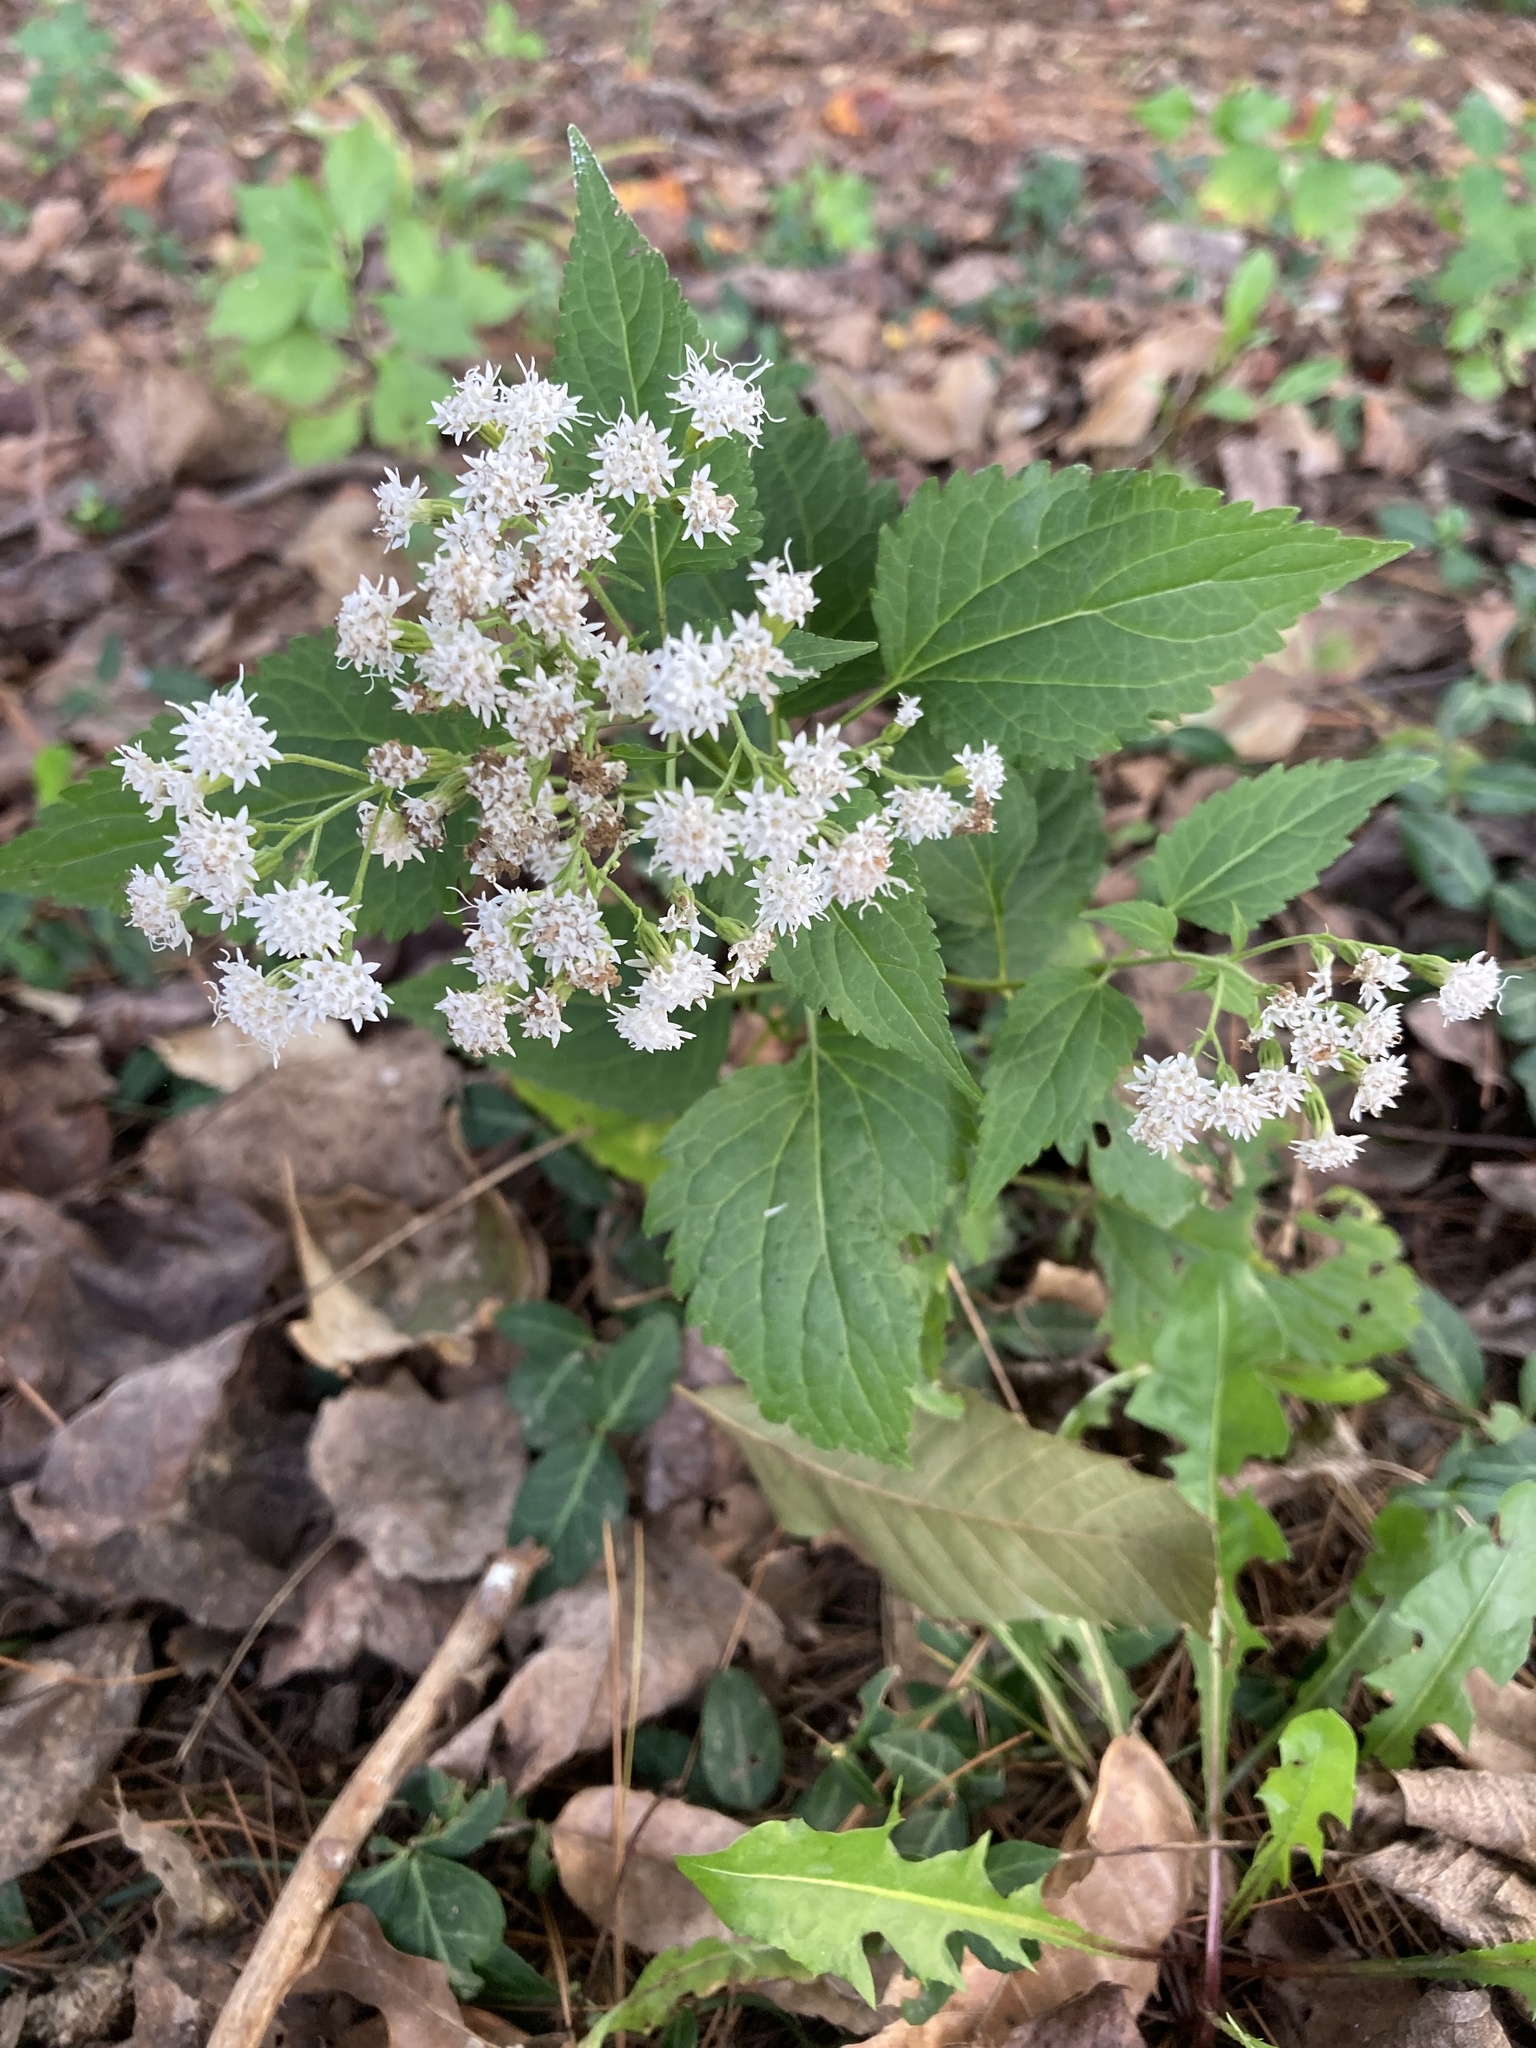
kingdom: Plantae
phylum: Tracheophyta
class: Magnoliopsida
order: Asterales
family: Asteraceae
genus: Ageratina
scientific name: Ageratina altissima
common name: White snakeroot
